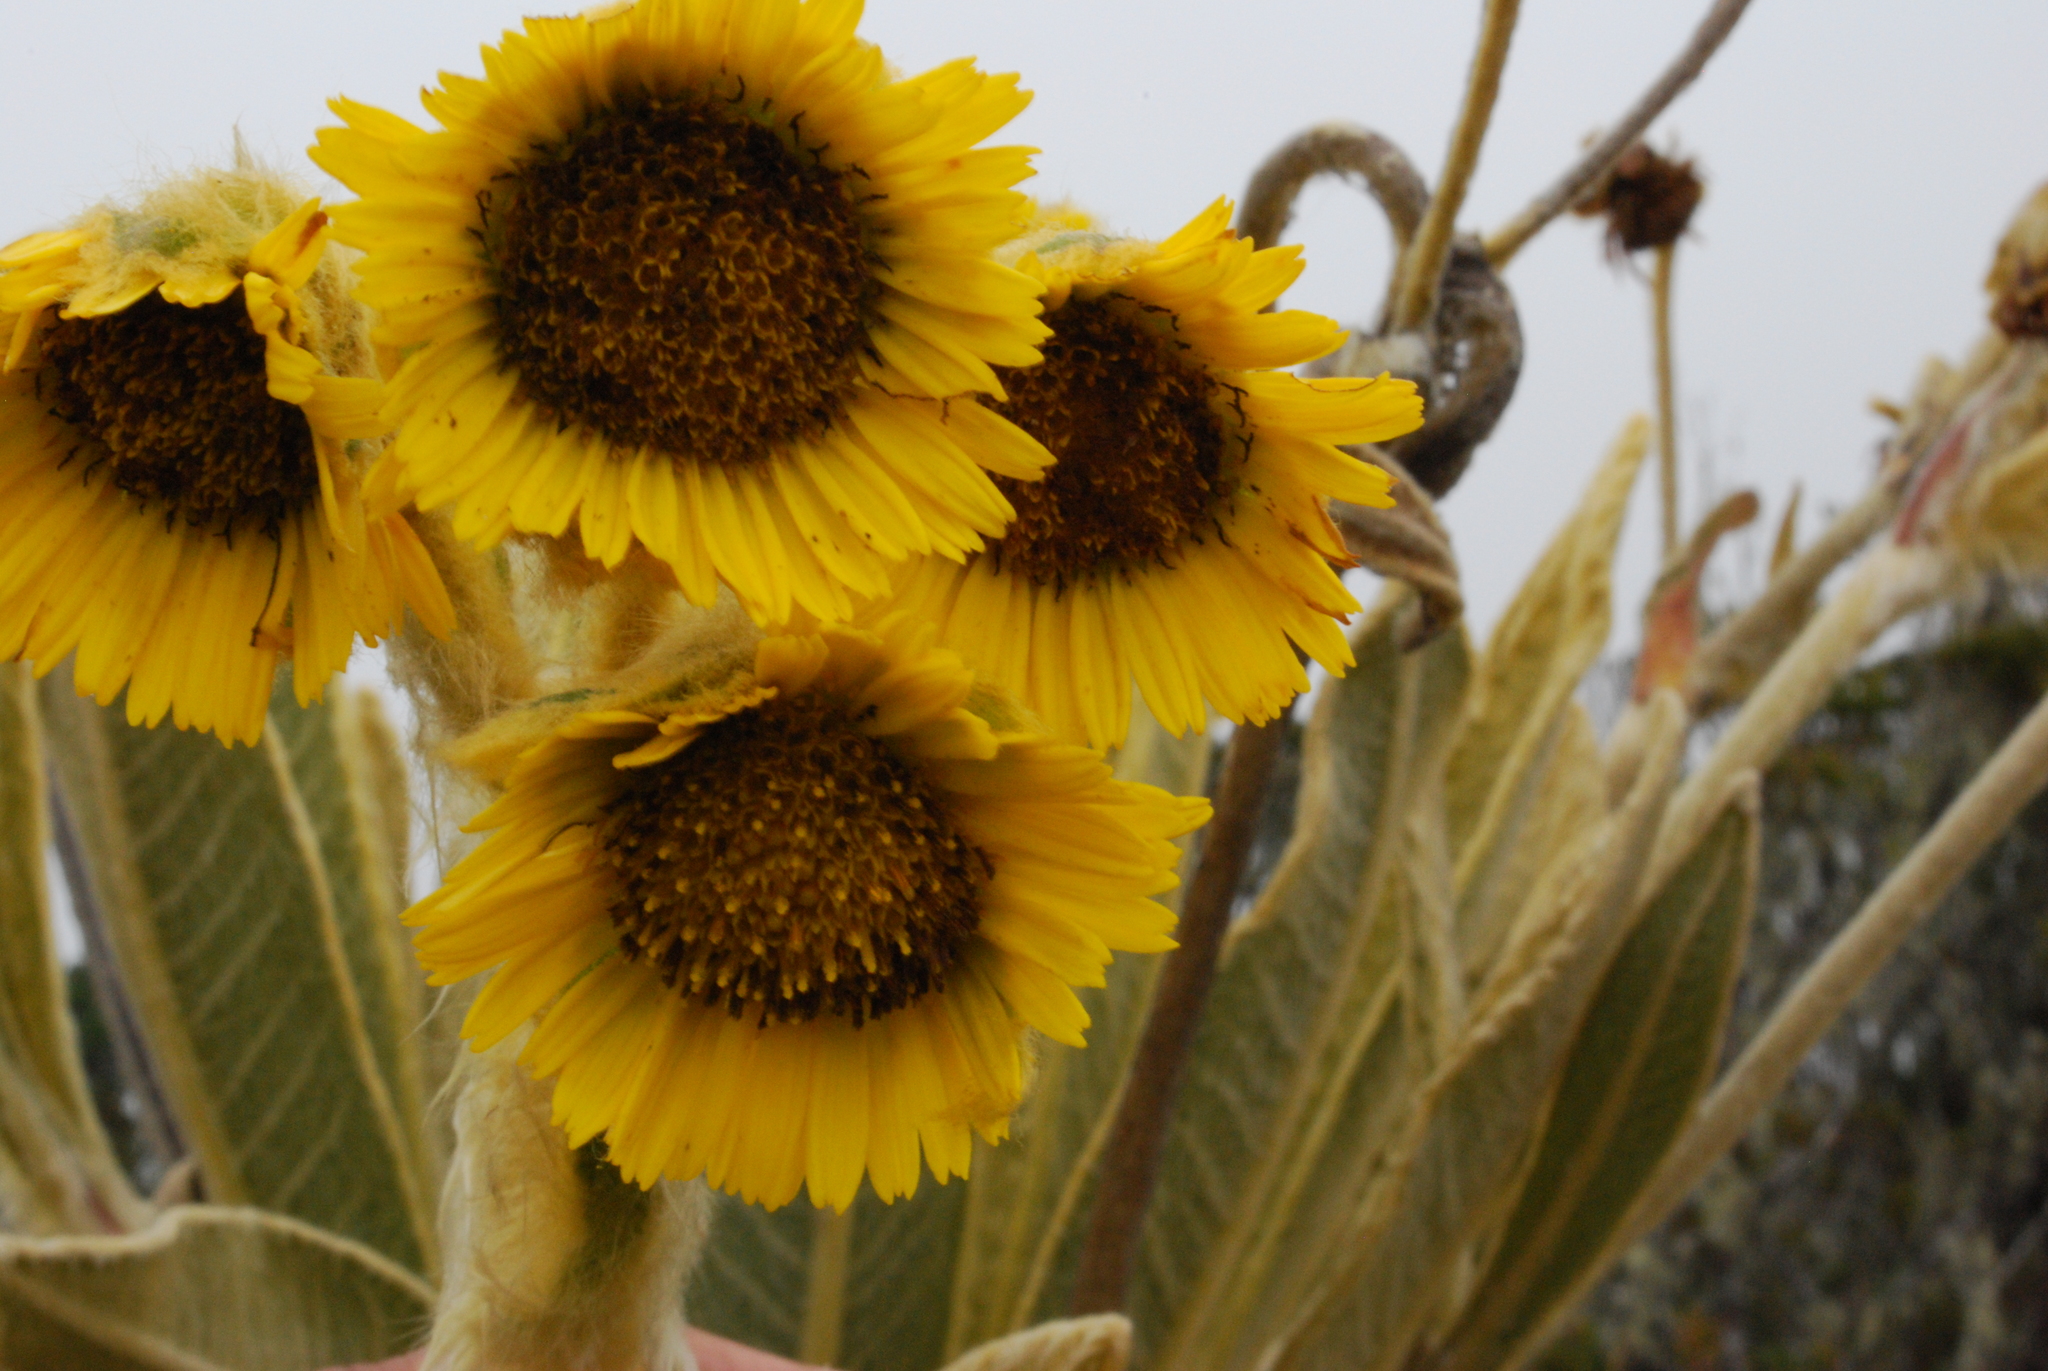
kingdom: Plantae
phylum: Tracheophyta
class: Magnoliopsida
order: Asterales
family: Asteraceae
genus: Espeletia
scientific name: Espeletia frontinoensis
